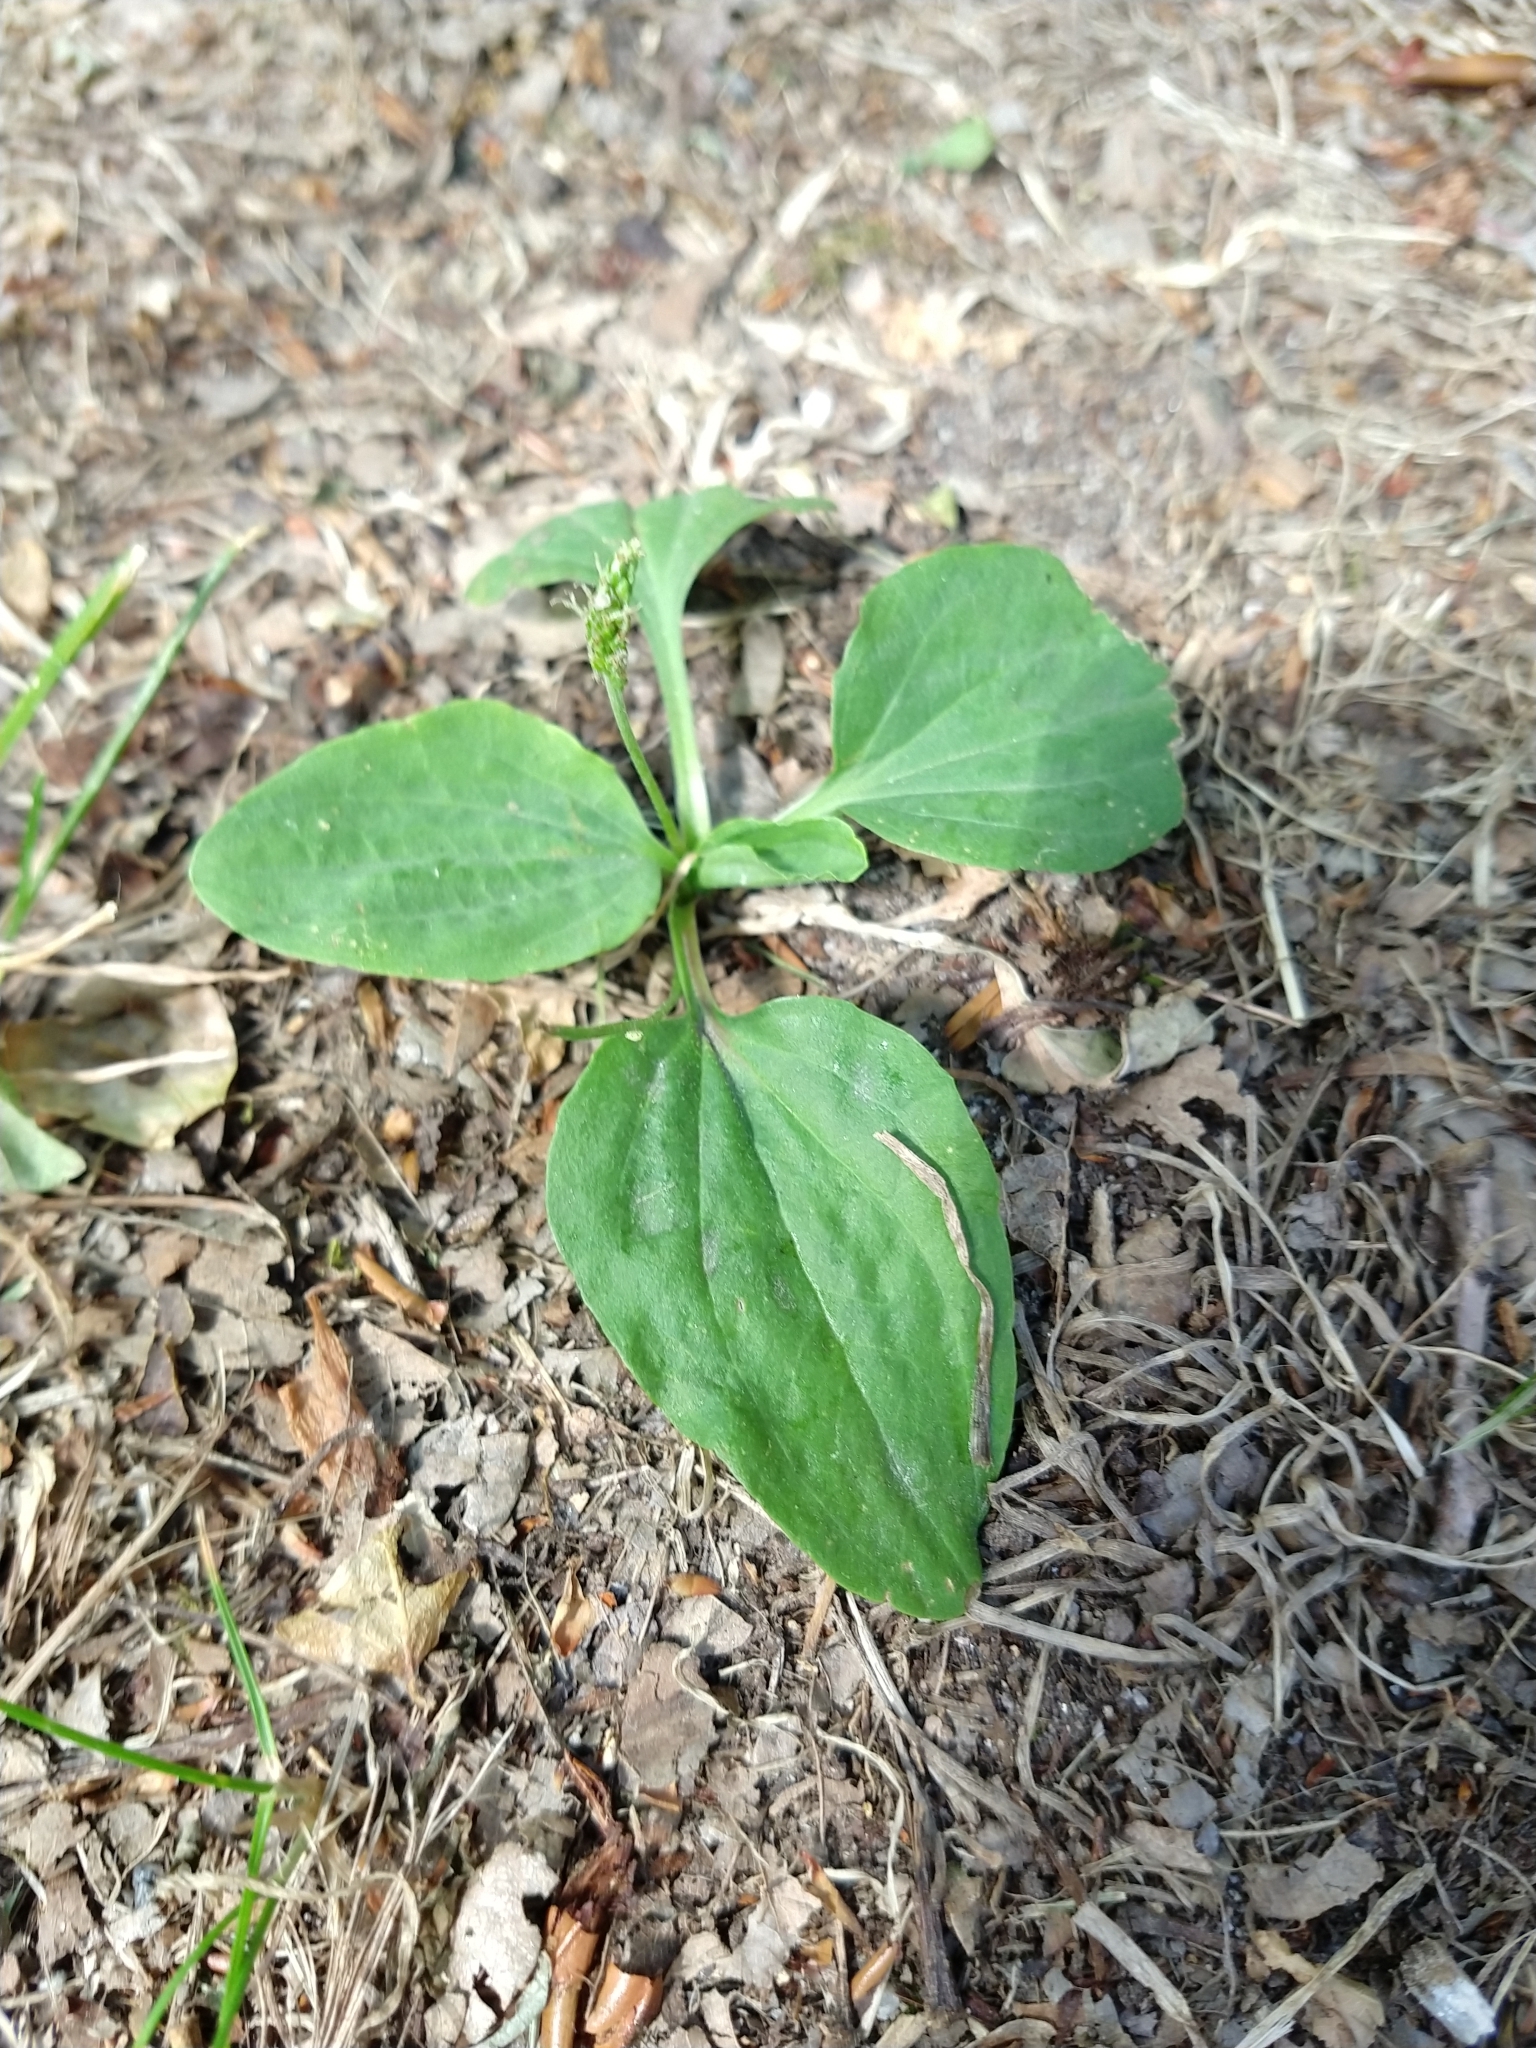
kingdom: Plantae
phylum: Tracheophyta
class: Magnoliopsida
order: Lamiales
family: Plantaginaceae
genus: Plantago
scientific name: Plantago major
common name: Common plantain
